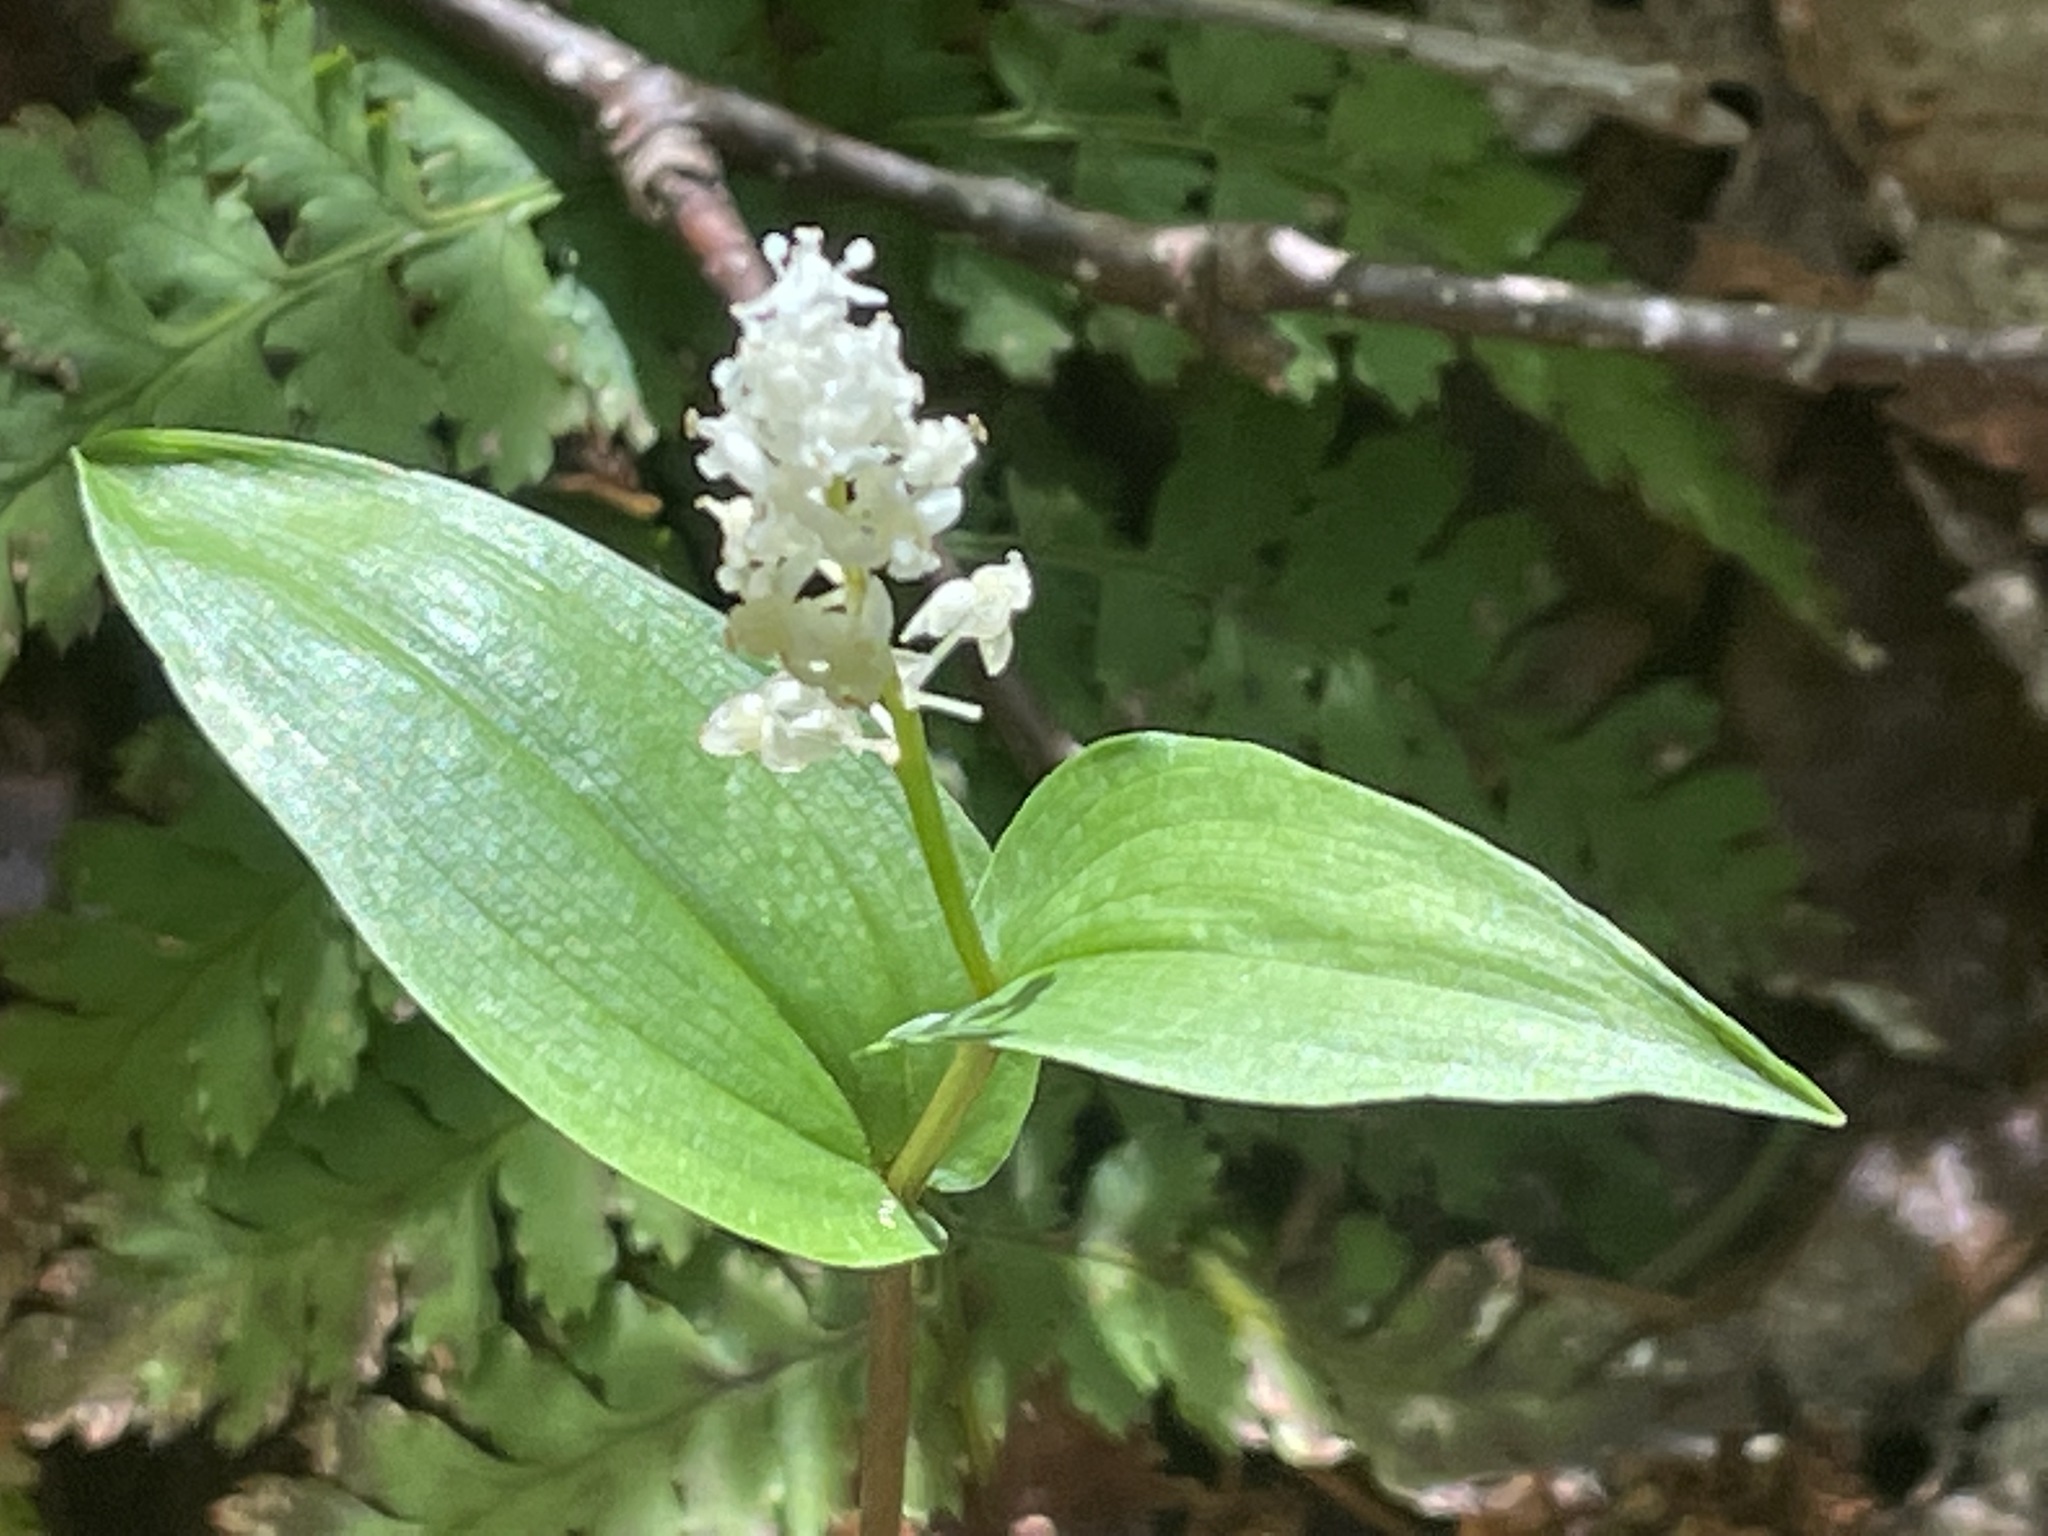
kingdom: Plantae
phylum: Tracheophyta
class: Liliopsida
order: Asparagales
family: Asparagaceae
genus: Maianthemum
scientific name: Maianthemum canadense
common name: False lily-of-the-valley
